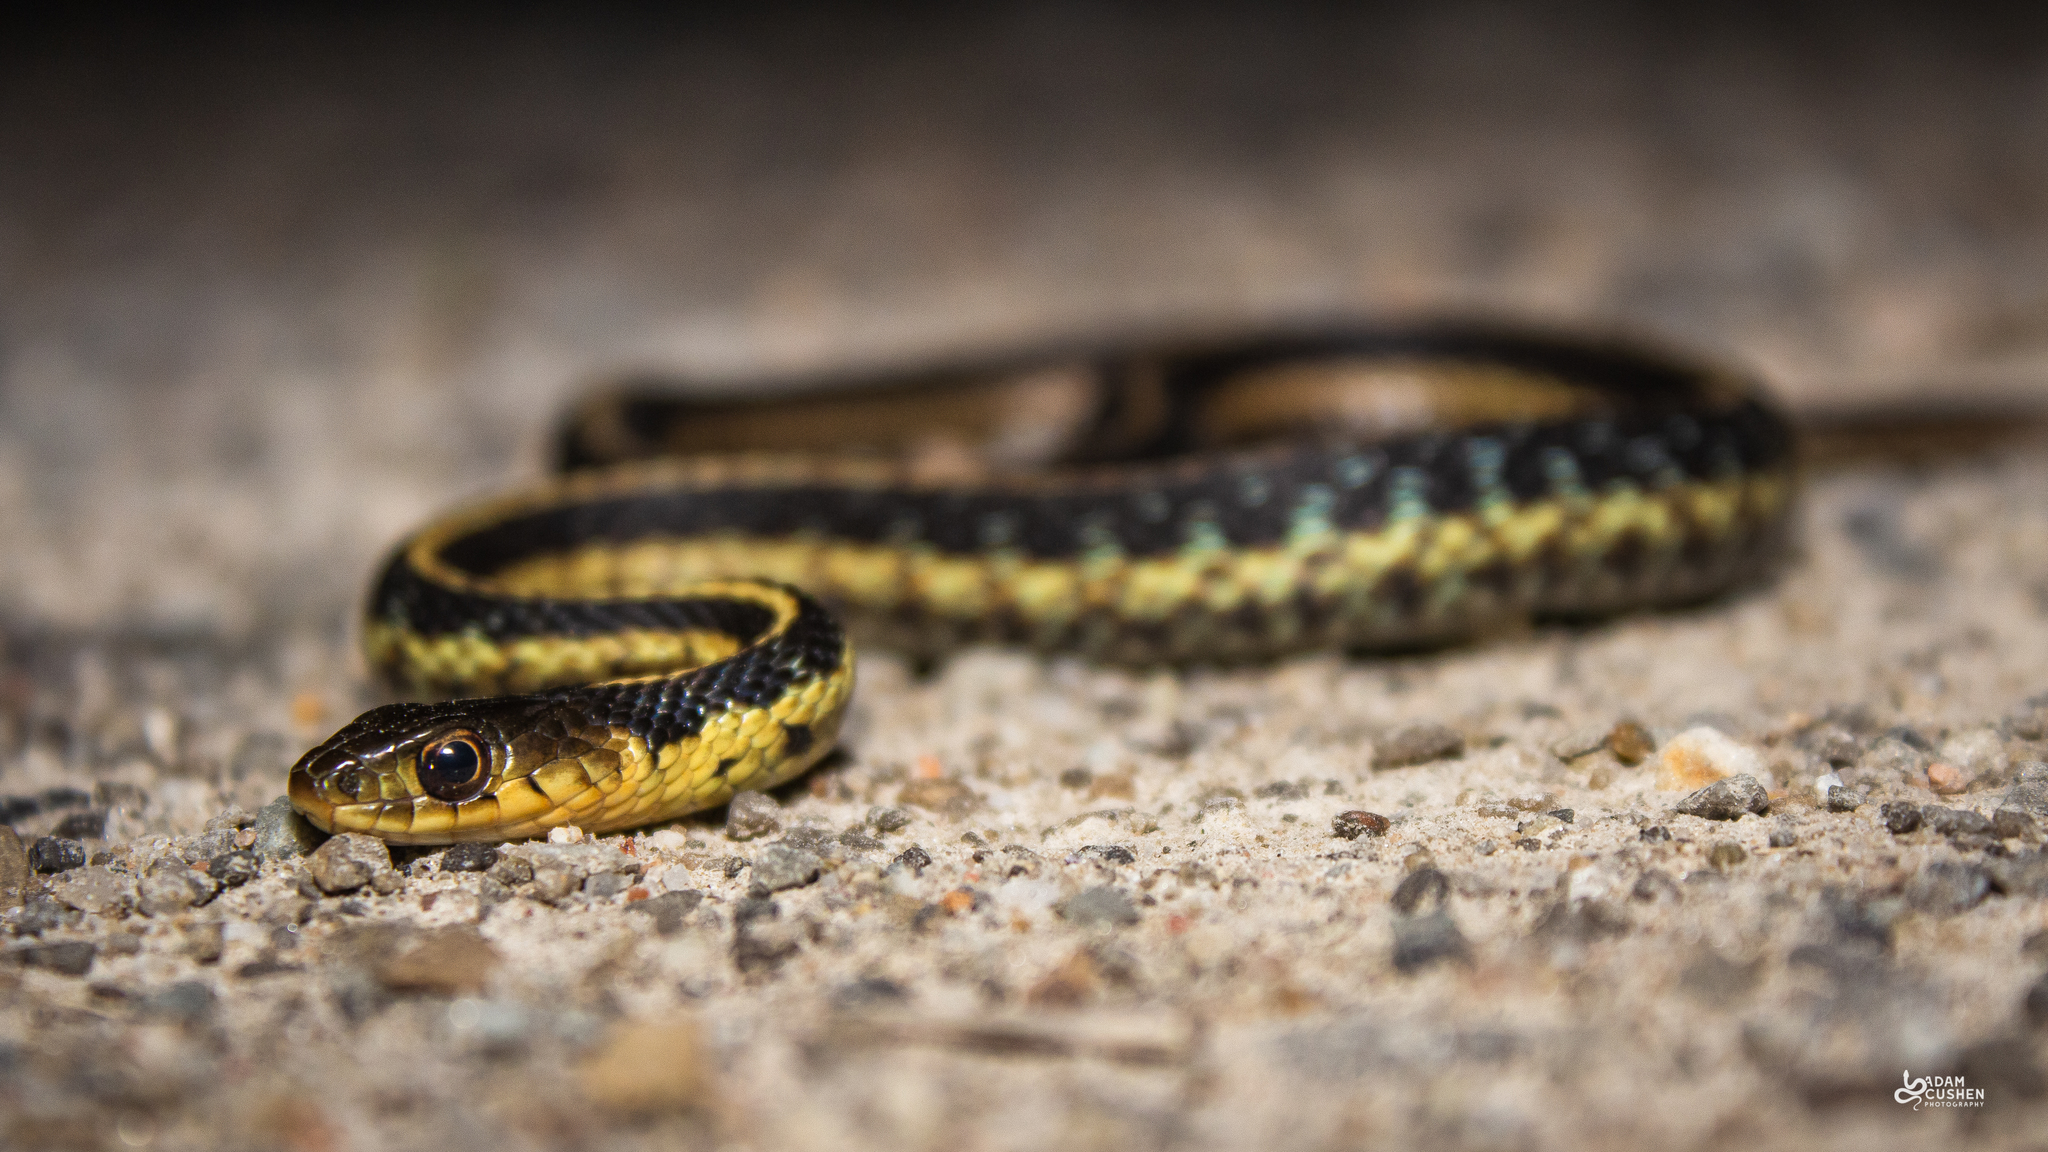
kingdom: Animalia
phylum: Chordata
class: Squamata
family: Colubridae
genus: Thamnophis
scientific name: Thamnophis sirtalis
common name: Common garter snake
